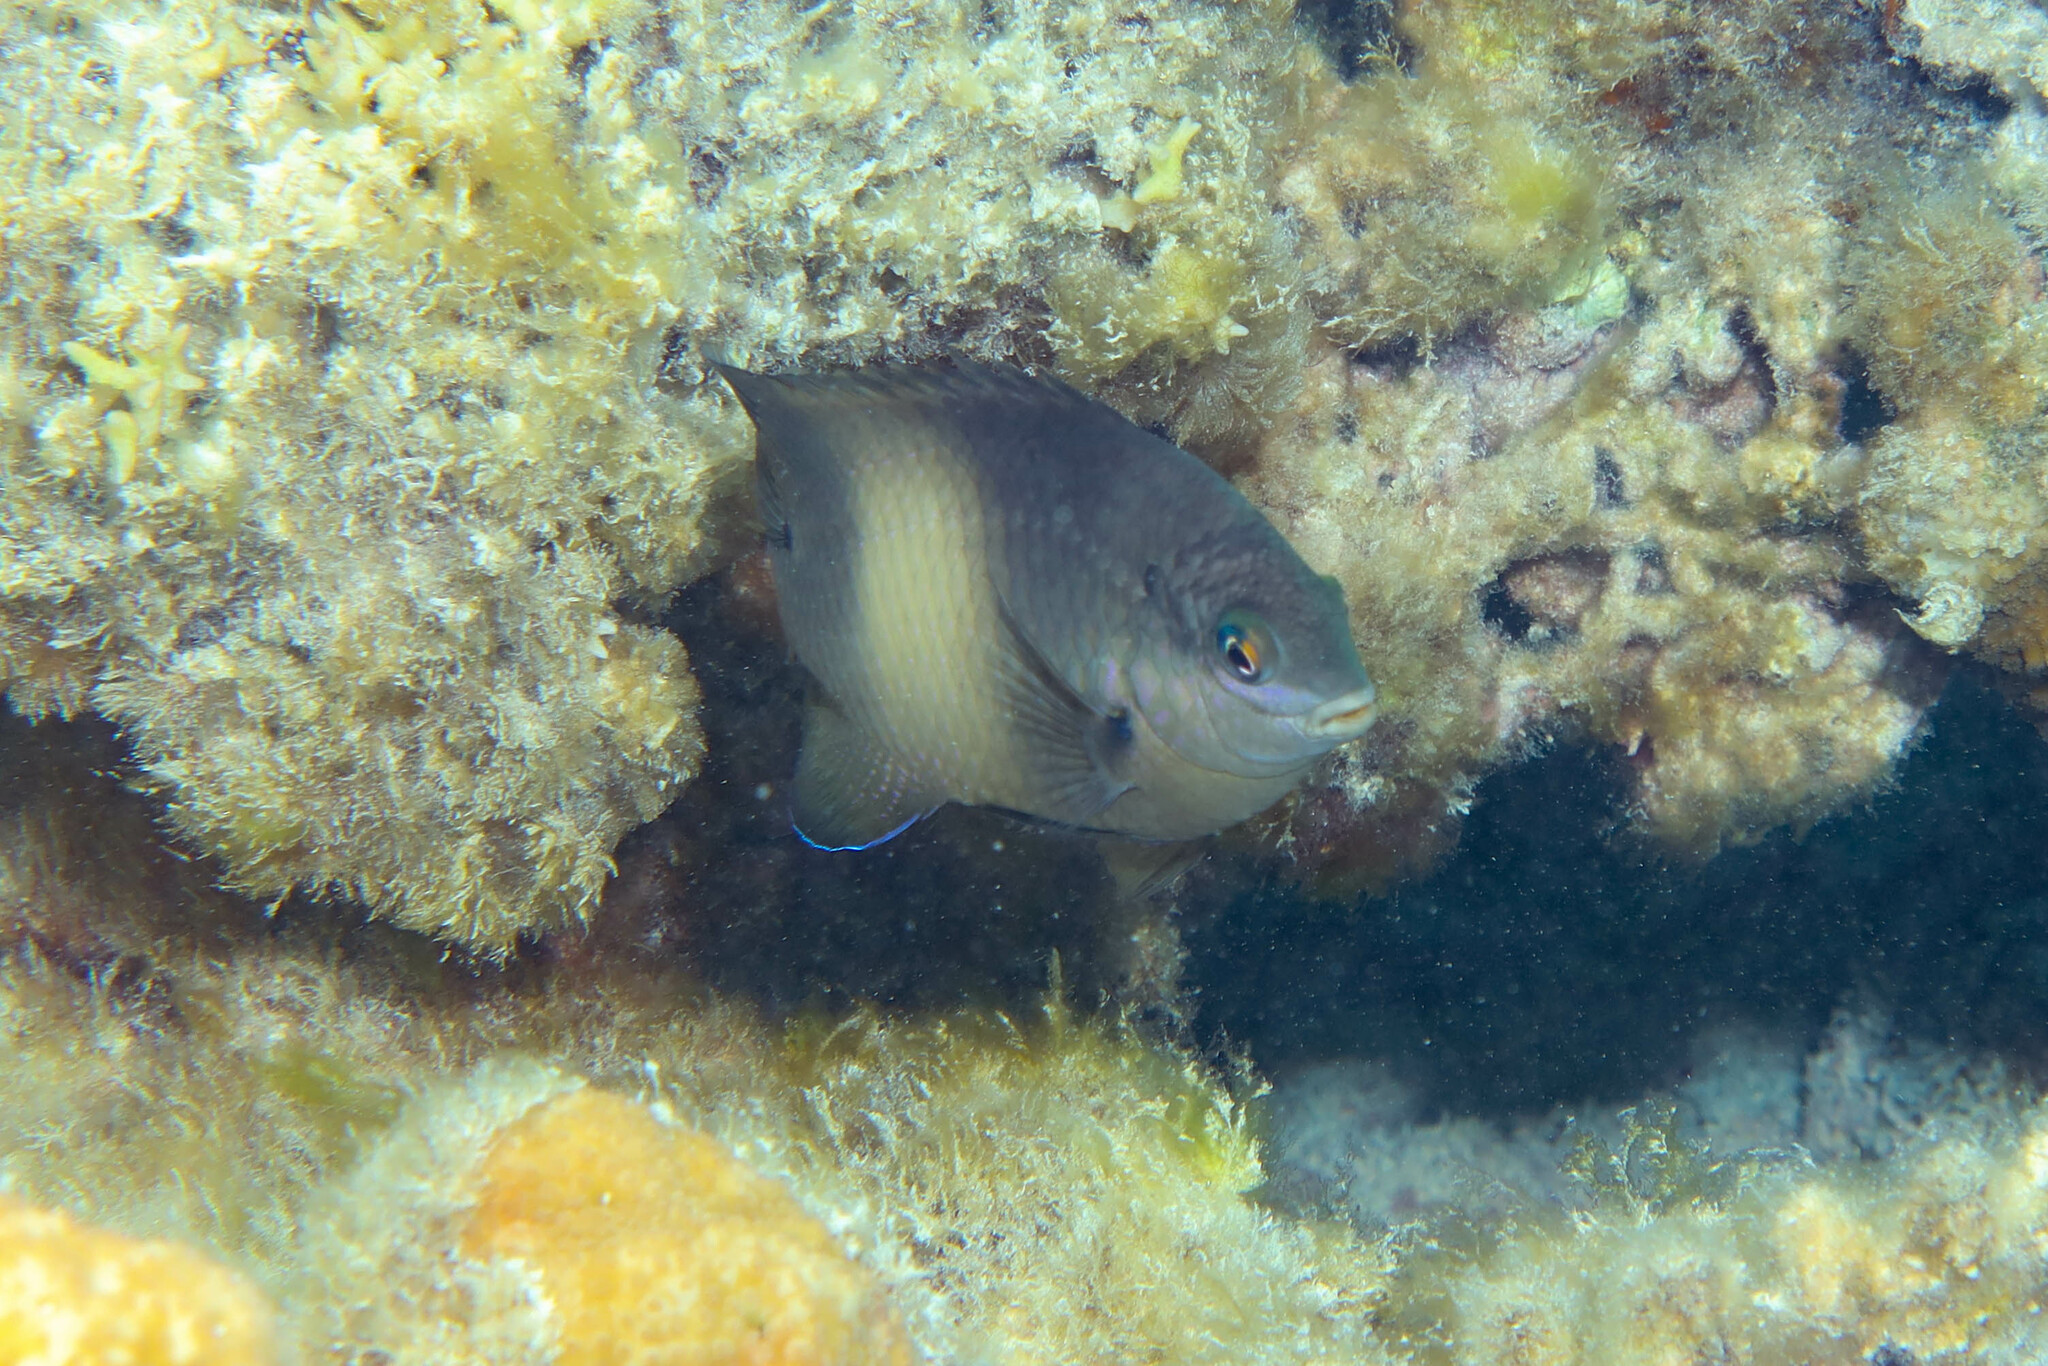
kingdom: Animalia
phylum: Chordata
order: Perciformes
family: Pomacentridae
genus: Stegastes
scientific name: Stegastes nigricans
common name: Dusky gregory
